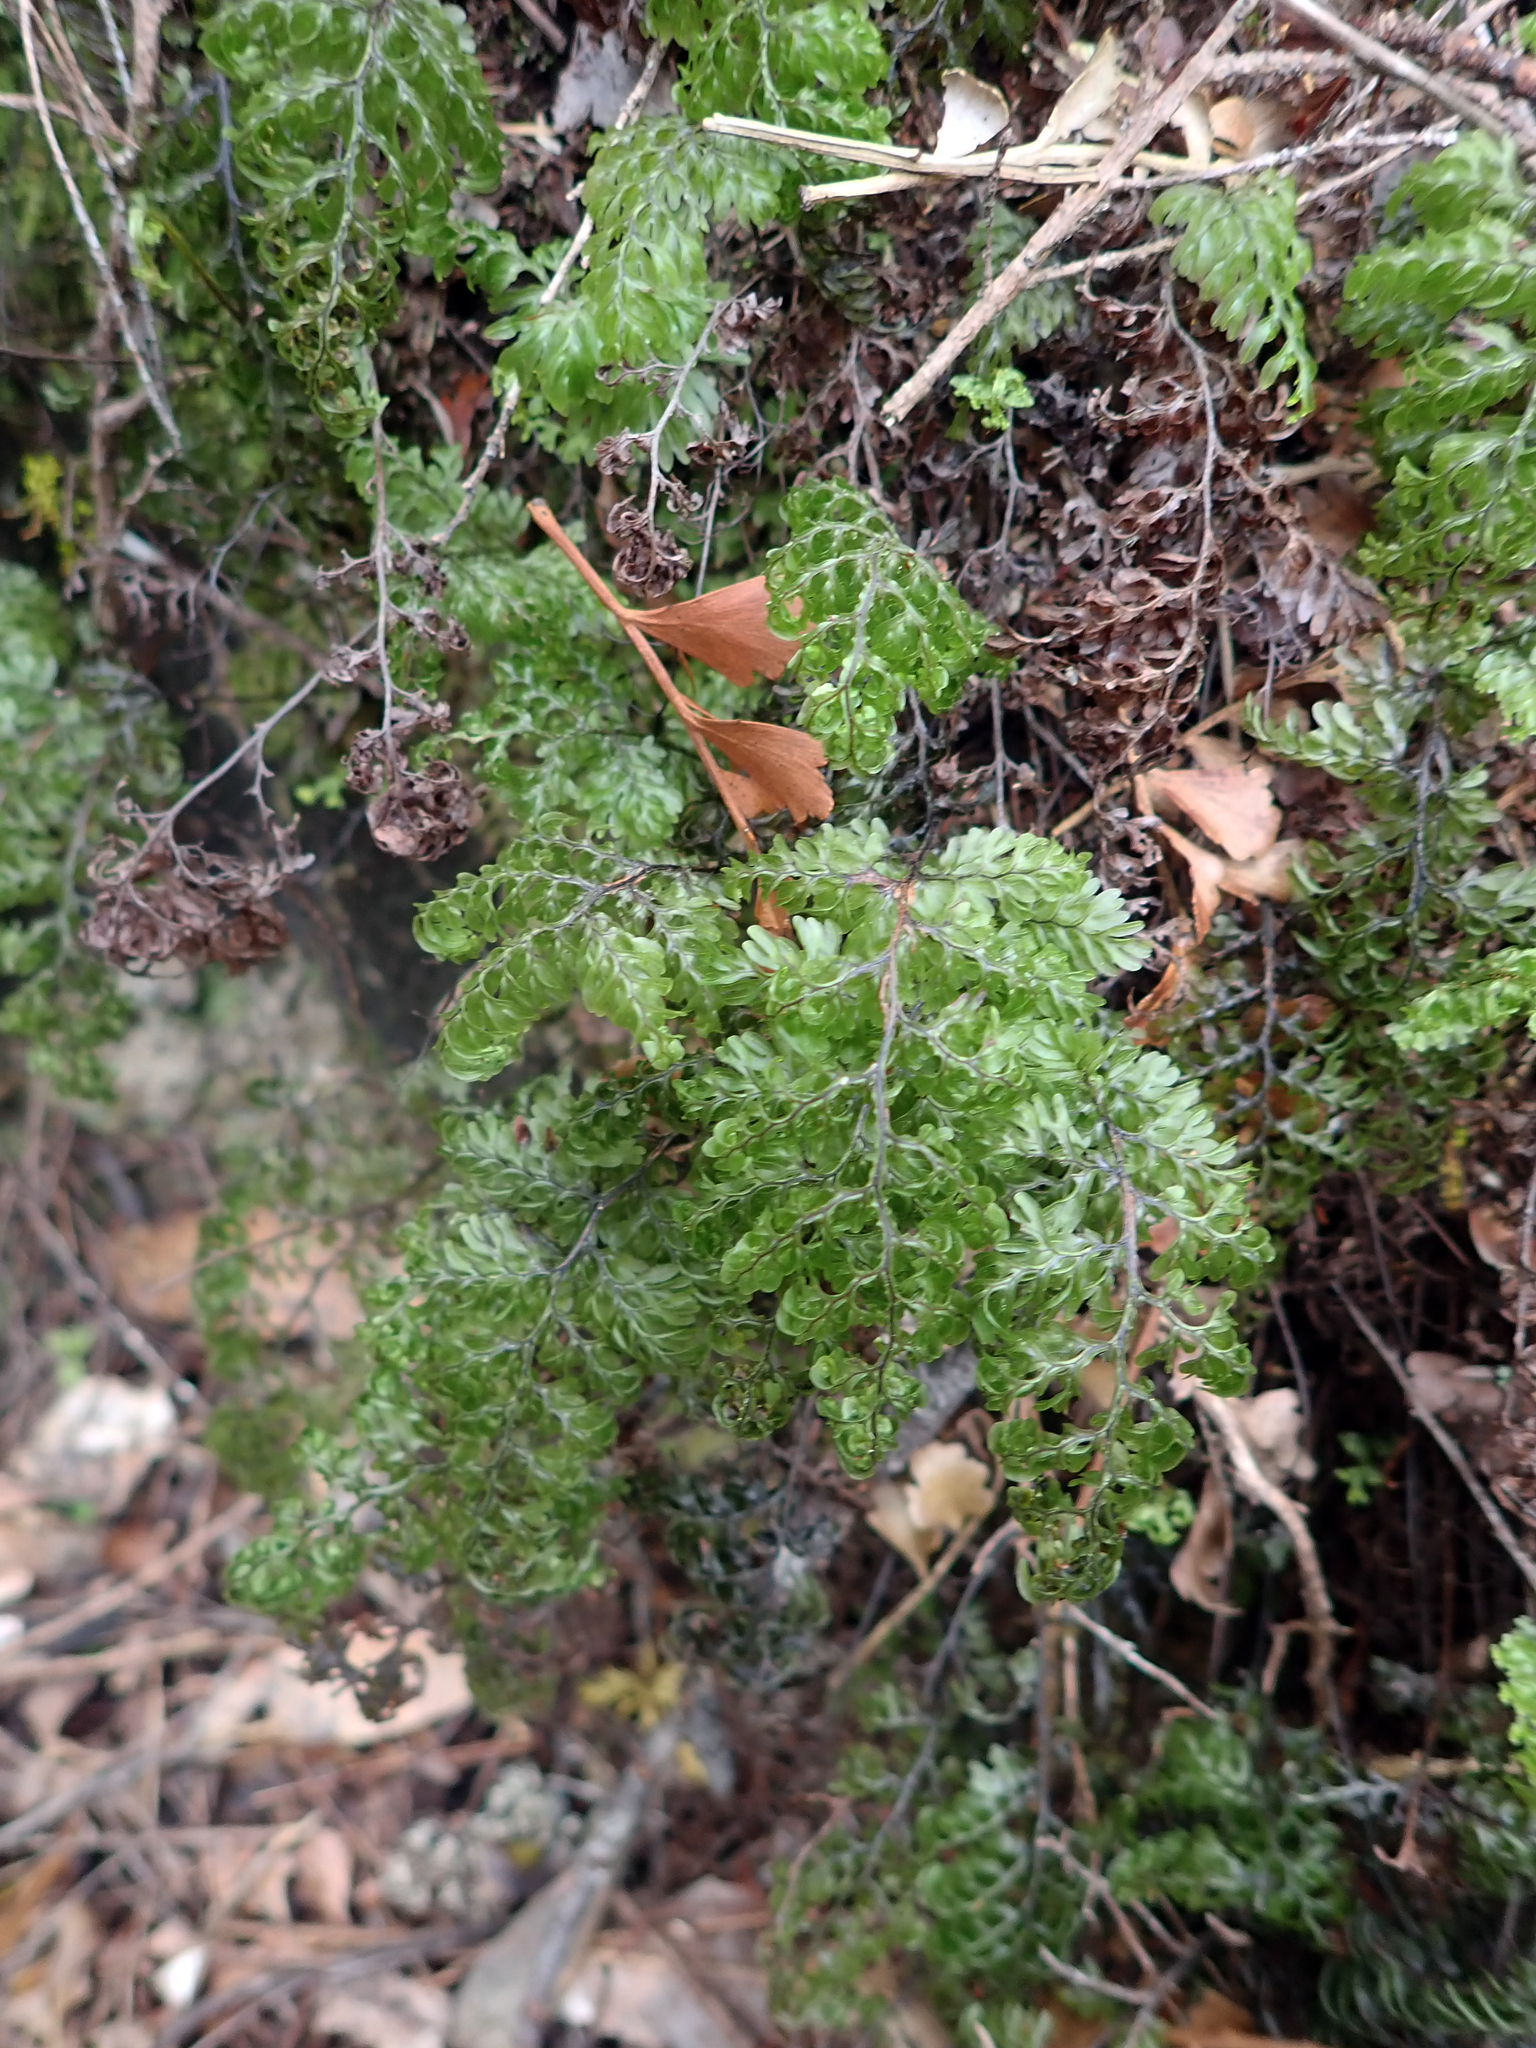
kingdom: Plantae
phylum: Tracheophyta
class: Polypodiopsida
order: Hymenophyllales
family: Hymenophyllaceae
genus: Hymenophyllum
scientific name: Hymenophyllum sanguinolentum
